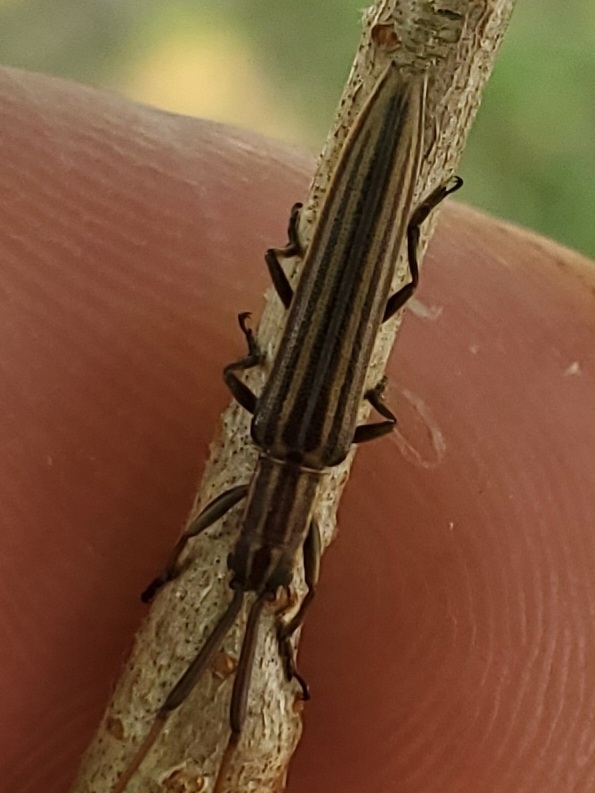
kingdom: Animalia
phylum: Arthropoda
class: Insecta
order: Coleoptera
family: Cerambycidae
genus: Hippopsis
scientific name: Hippopsis
